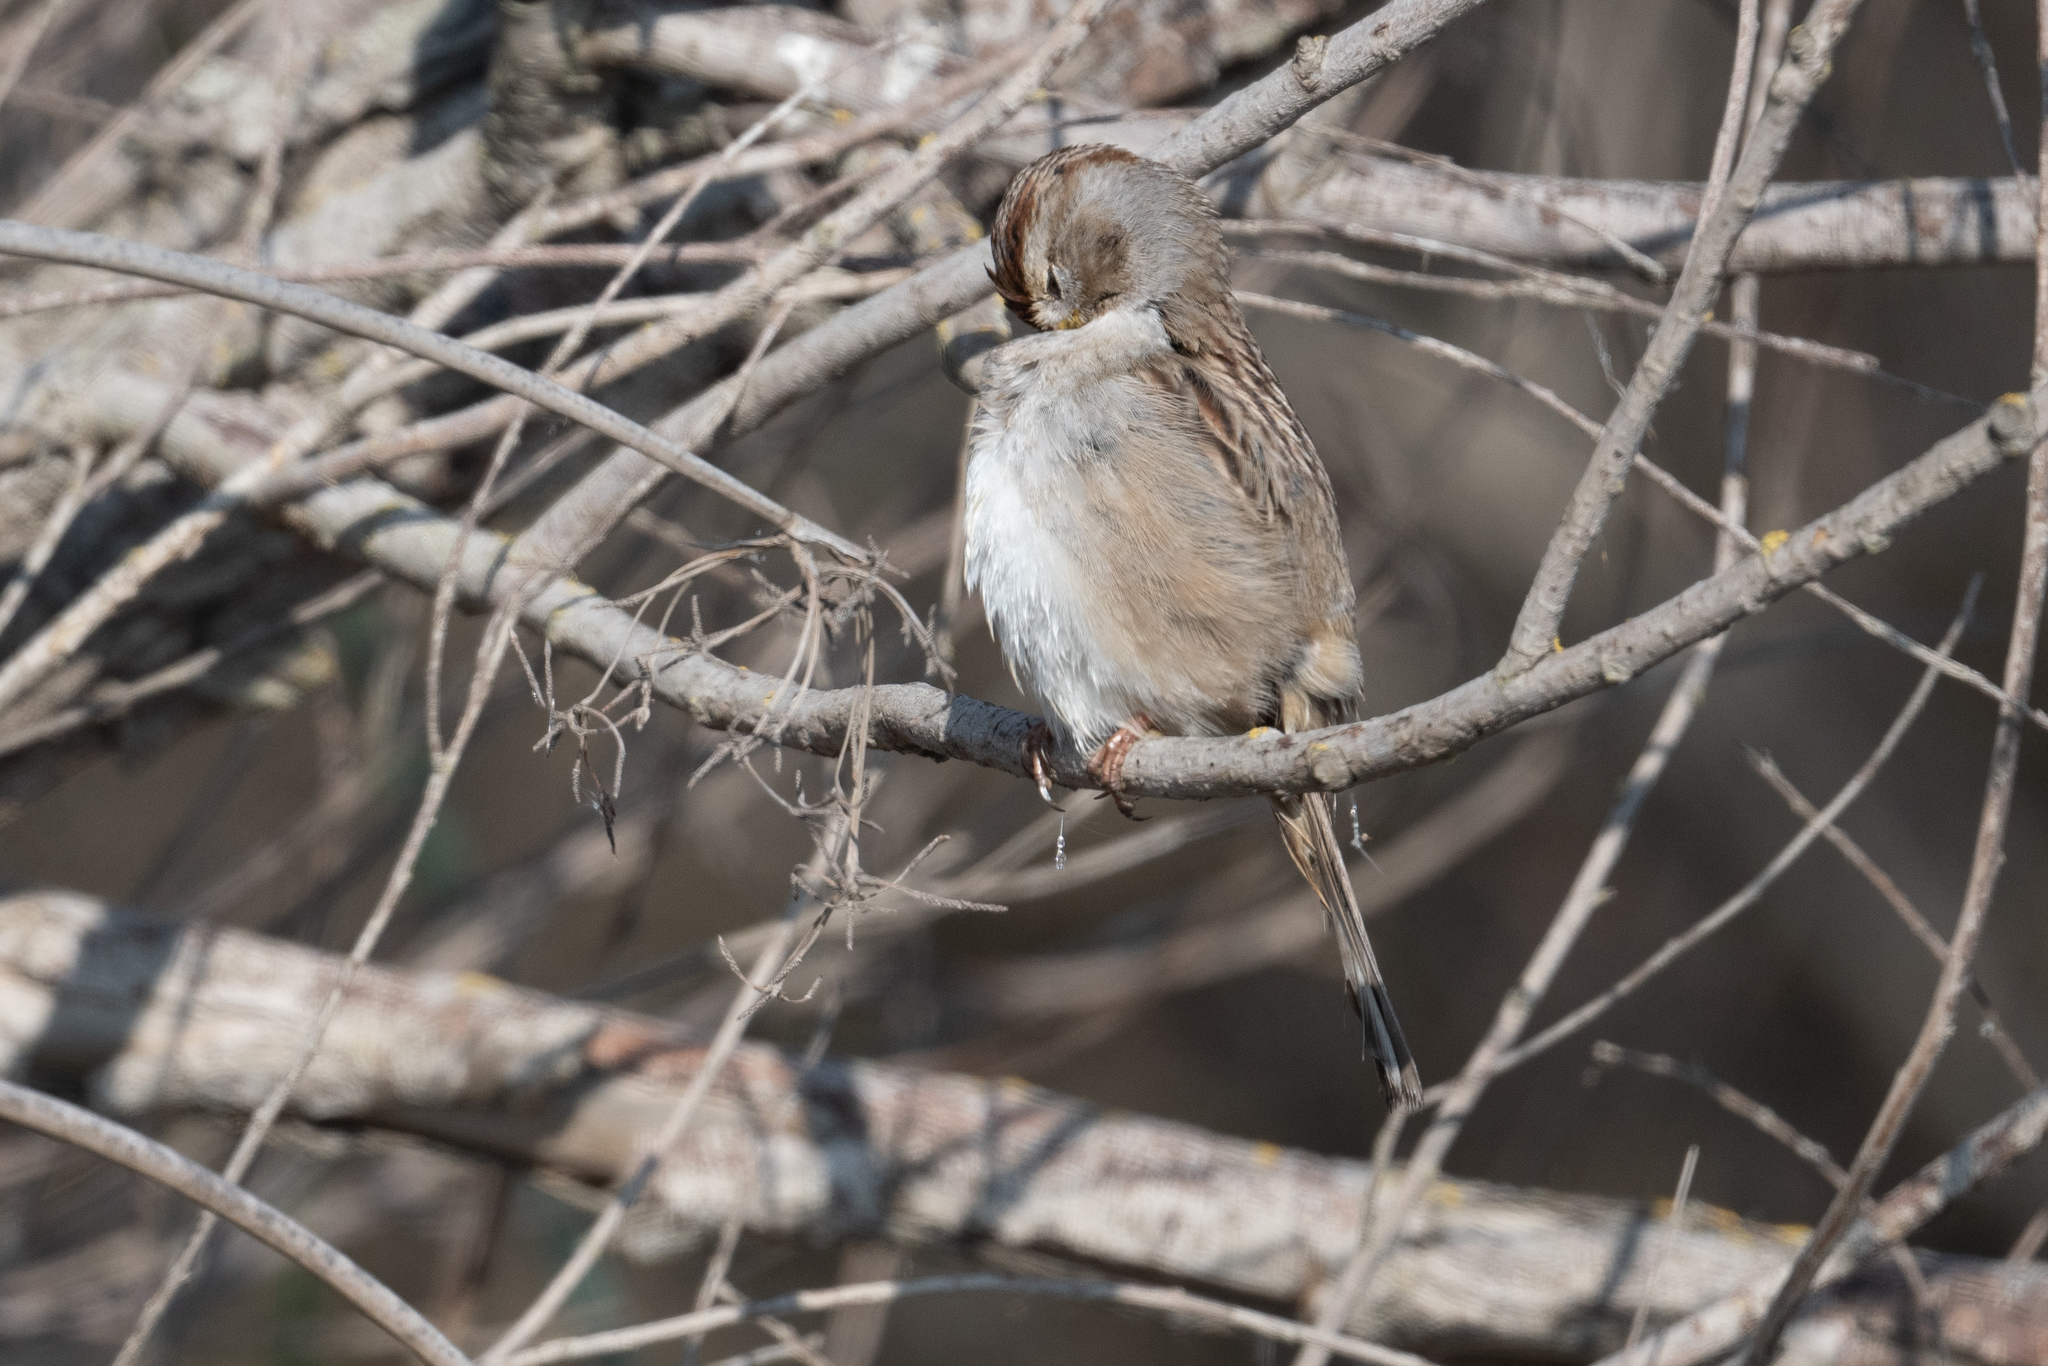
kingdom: Animalia
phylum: Chordata
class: Aves
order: Passeriformes
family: Passerellidae
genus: Zonotrichia
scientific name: Zonotrichia leucophrys
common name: White-crowned sparrow
